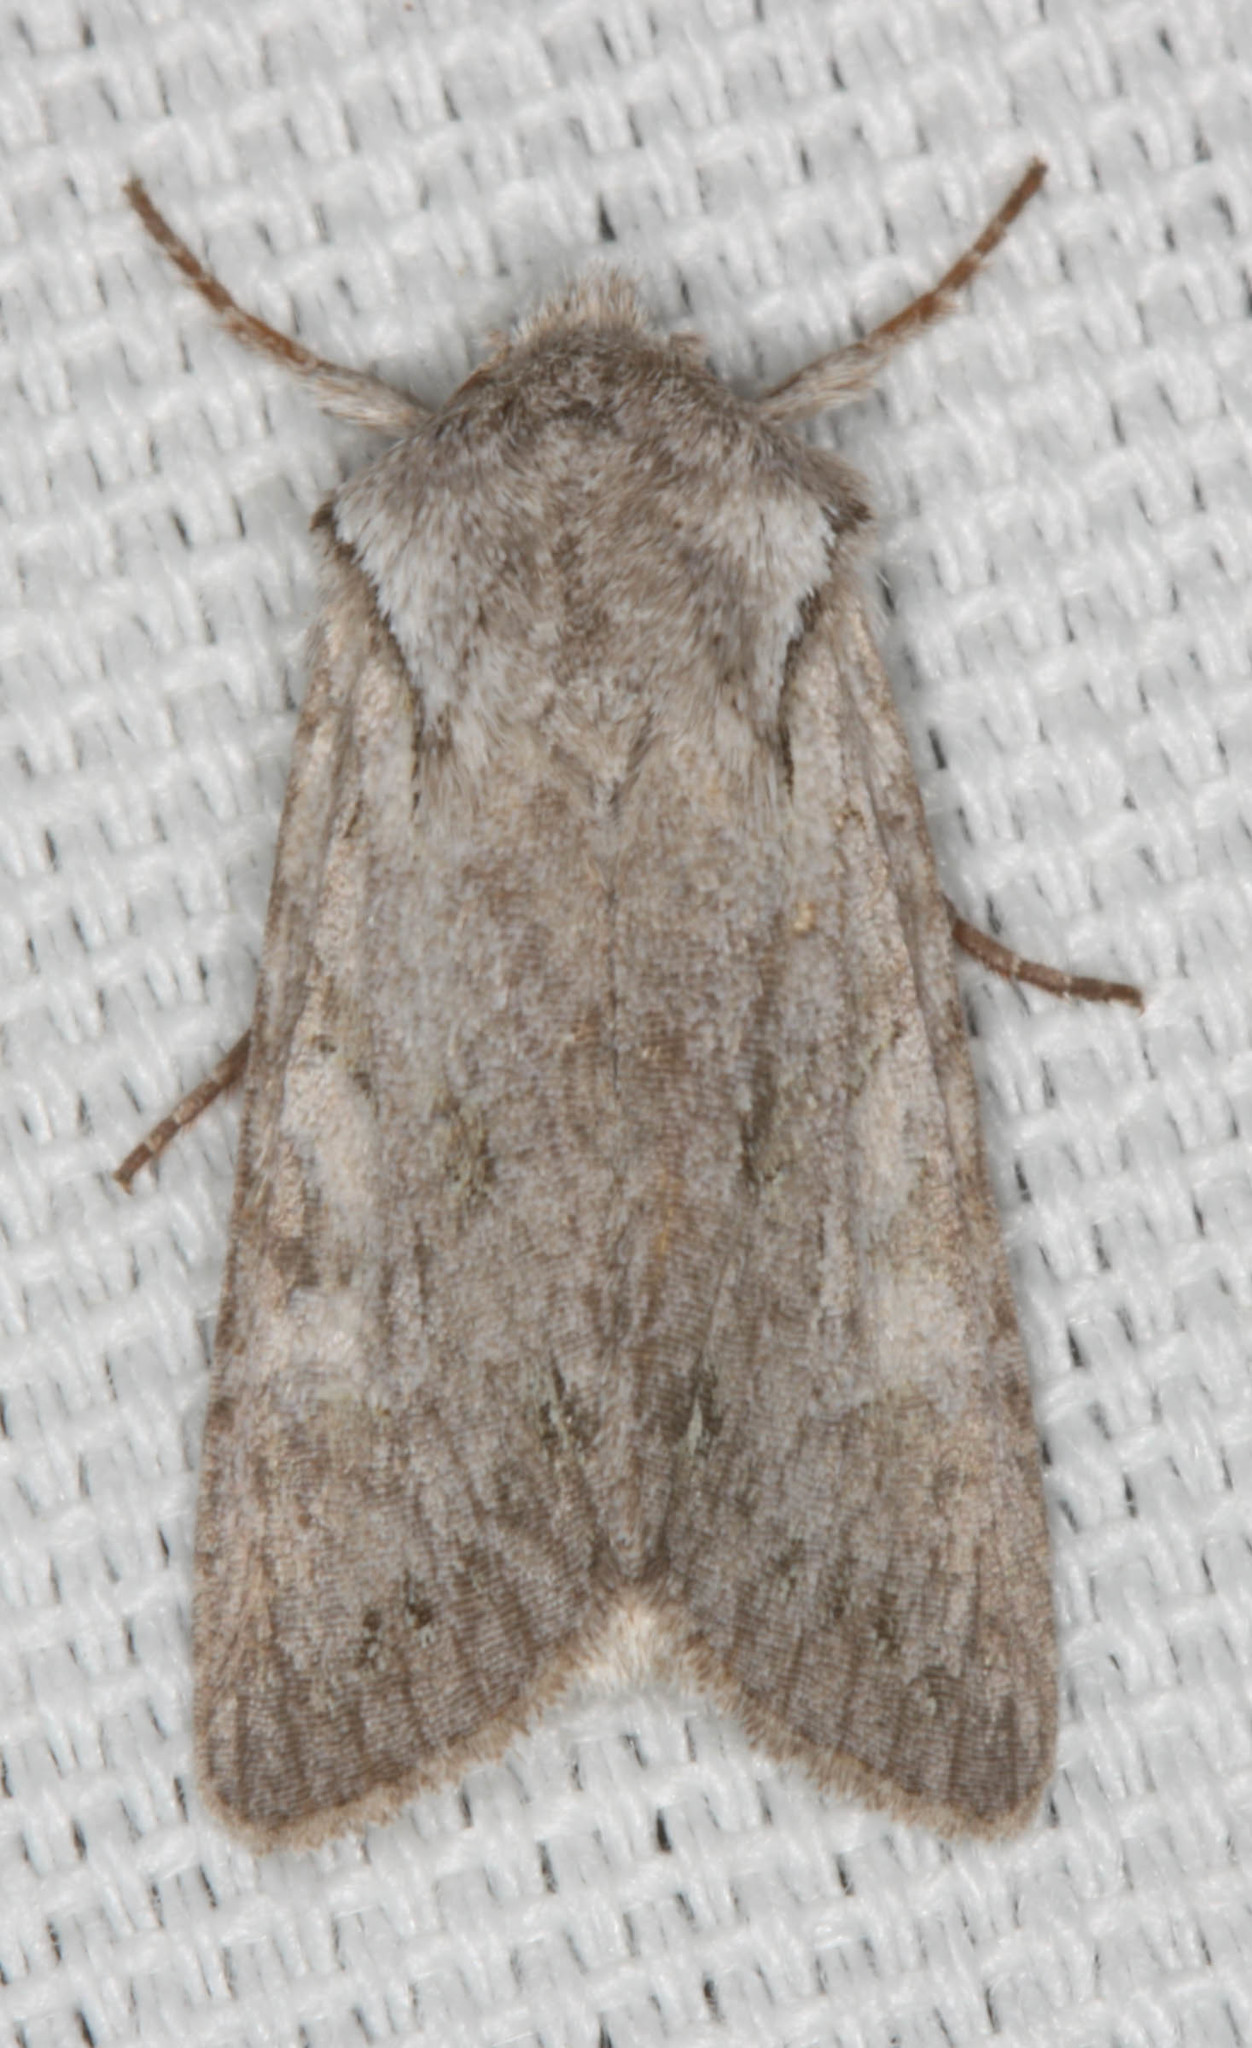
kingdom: Animalia
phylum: Arthropoda
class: Insecta
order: Lepidoptera
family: Noctuidae
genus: Lacinipolia
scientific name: Lacinipolia patalis
